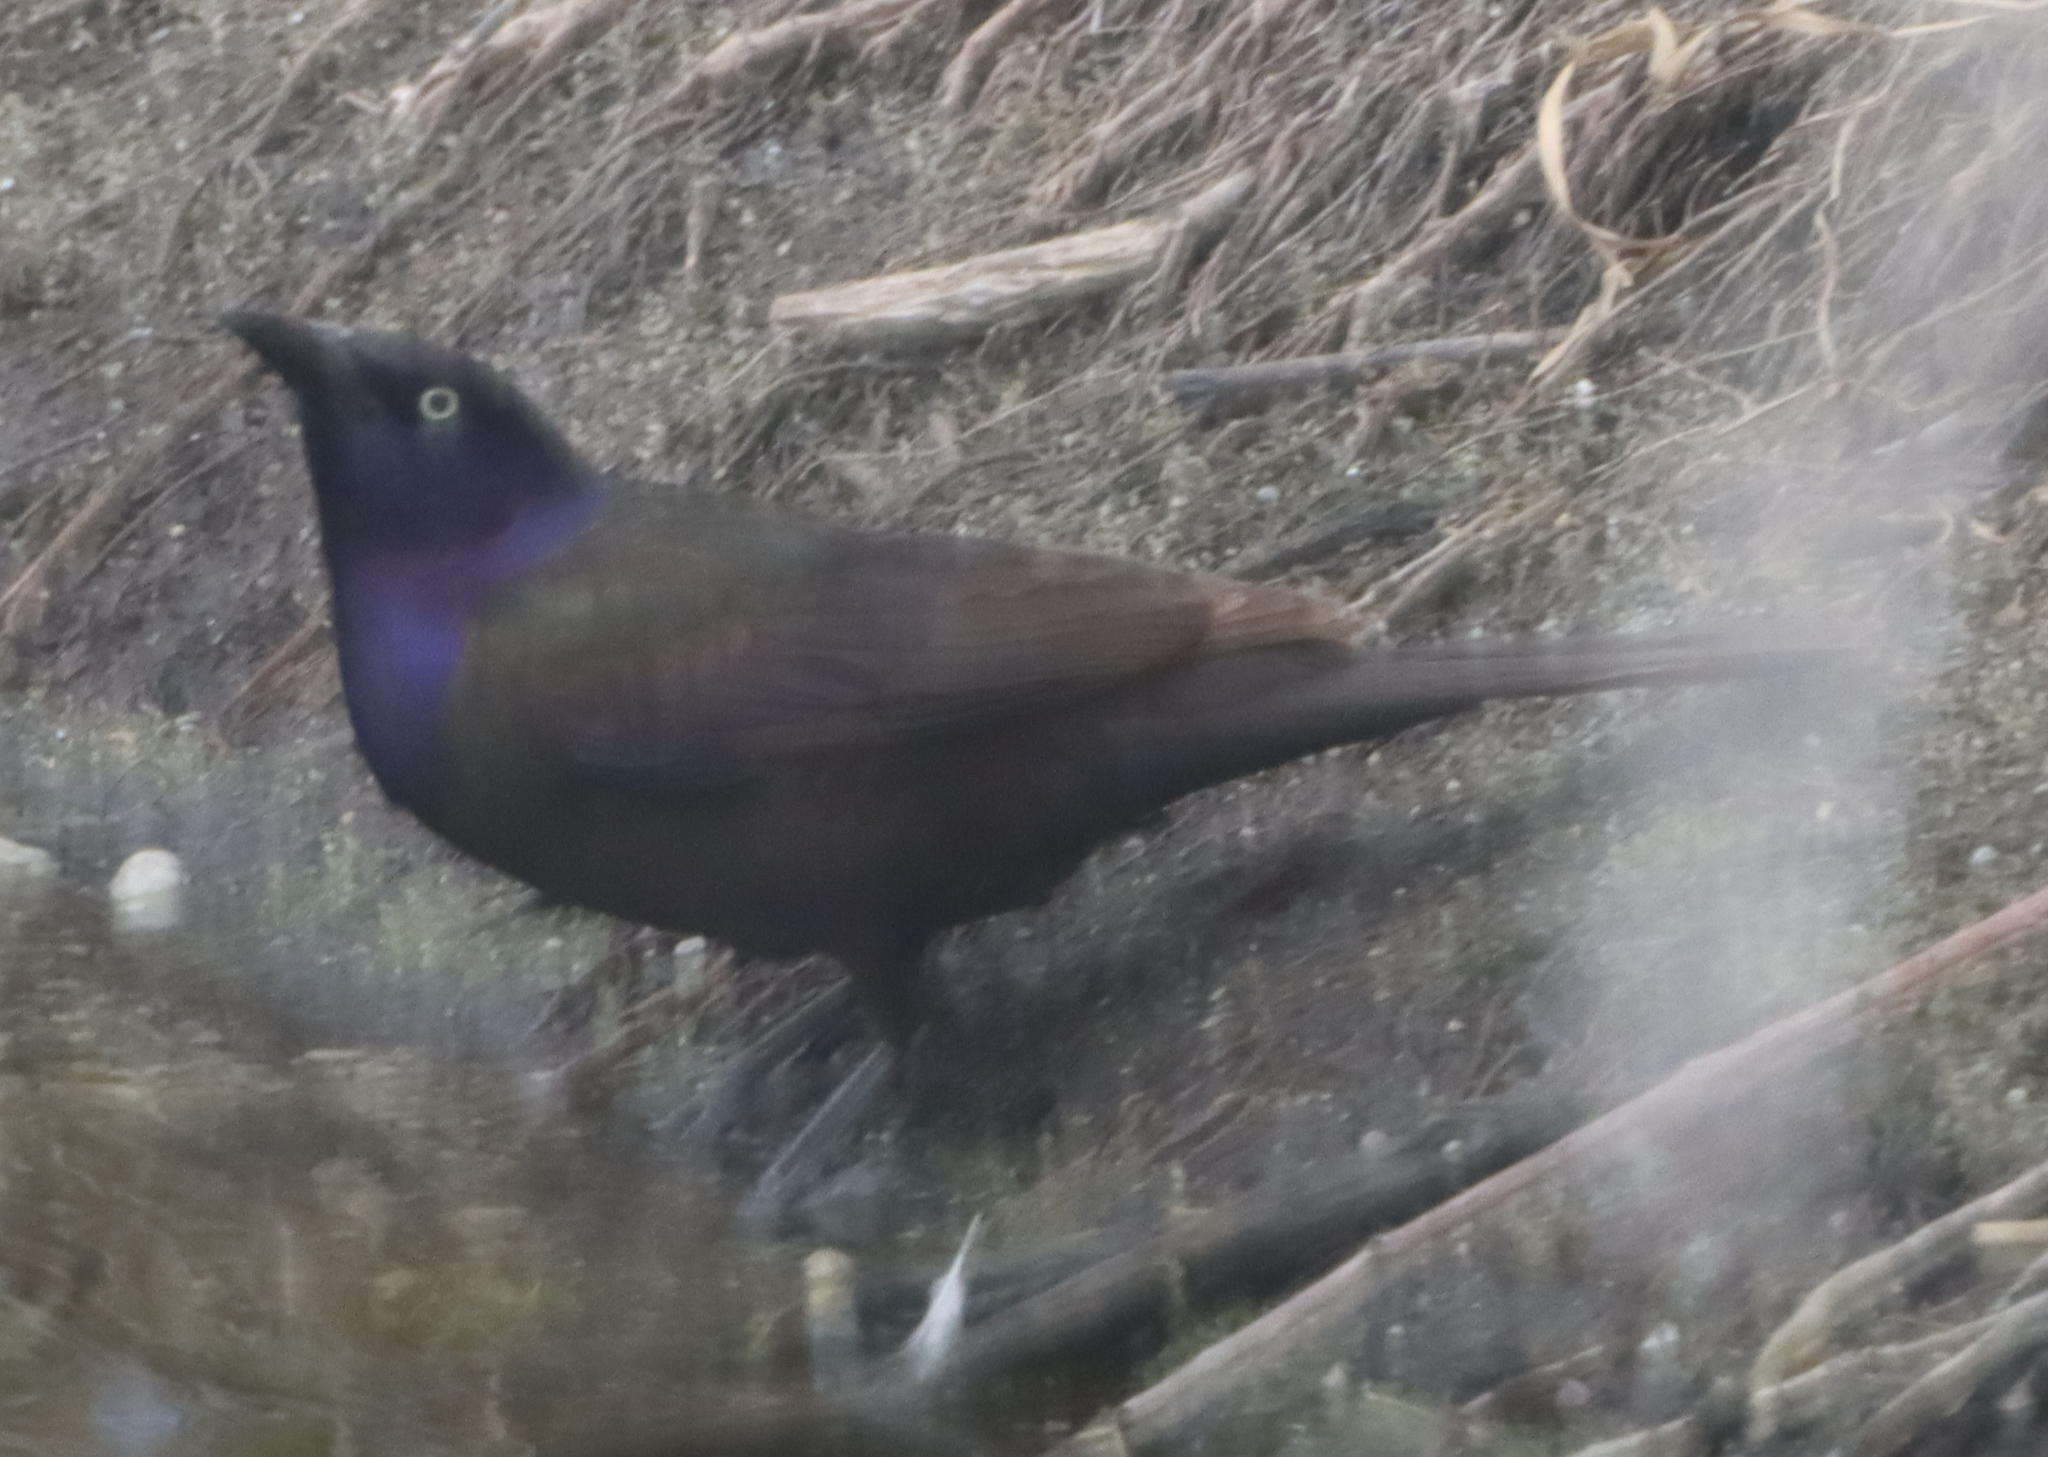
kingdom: Animalia
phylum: Chordata
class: Aves
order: Passeriformes
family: Icteridae
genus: Quiscalus
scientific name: Quiscalus quiscula
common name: Common grackle
